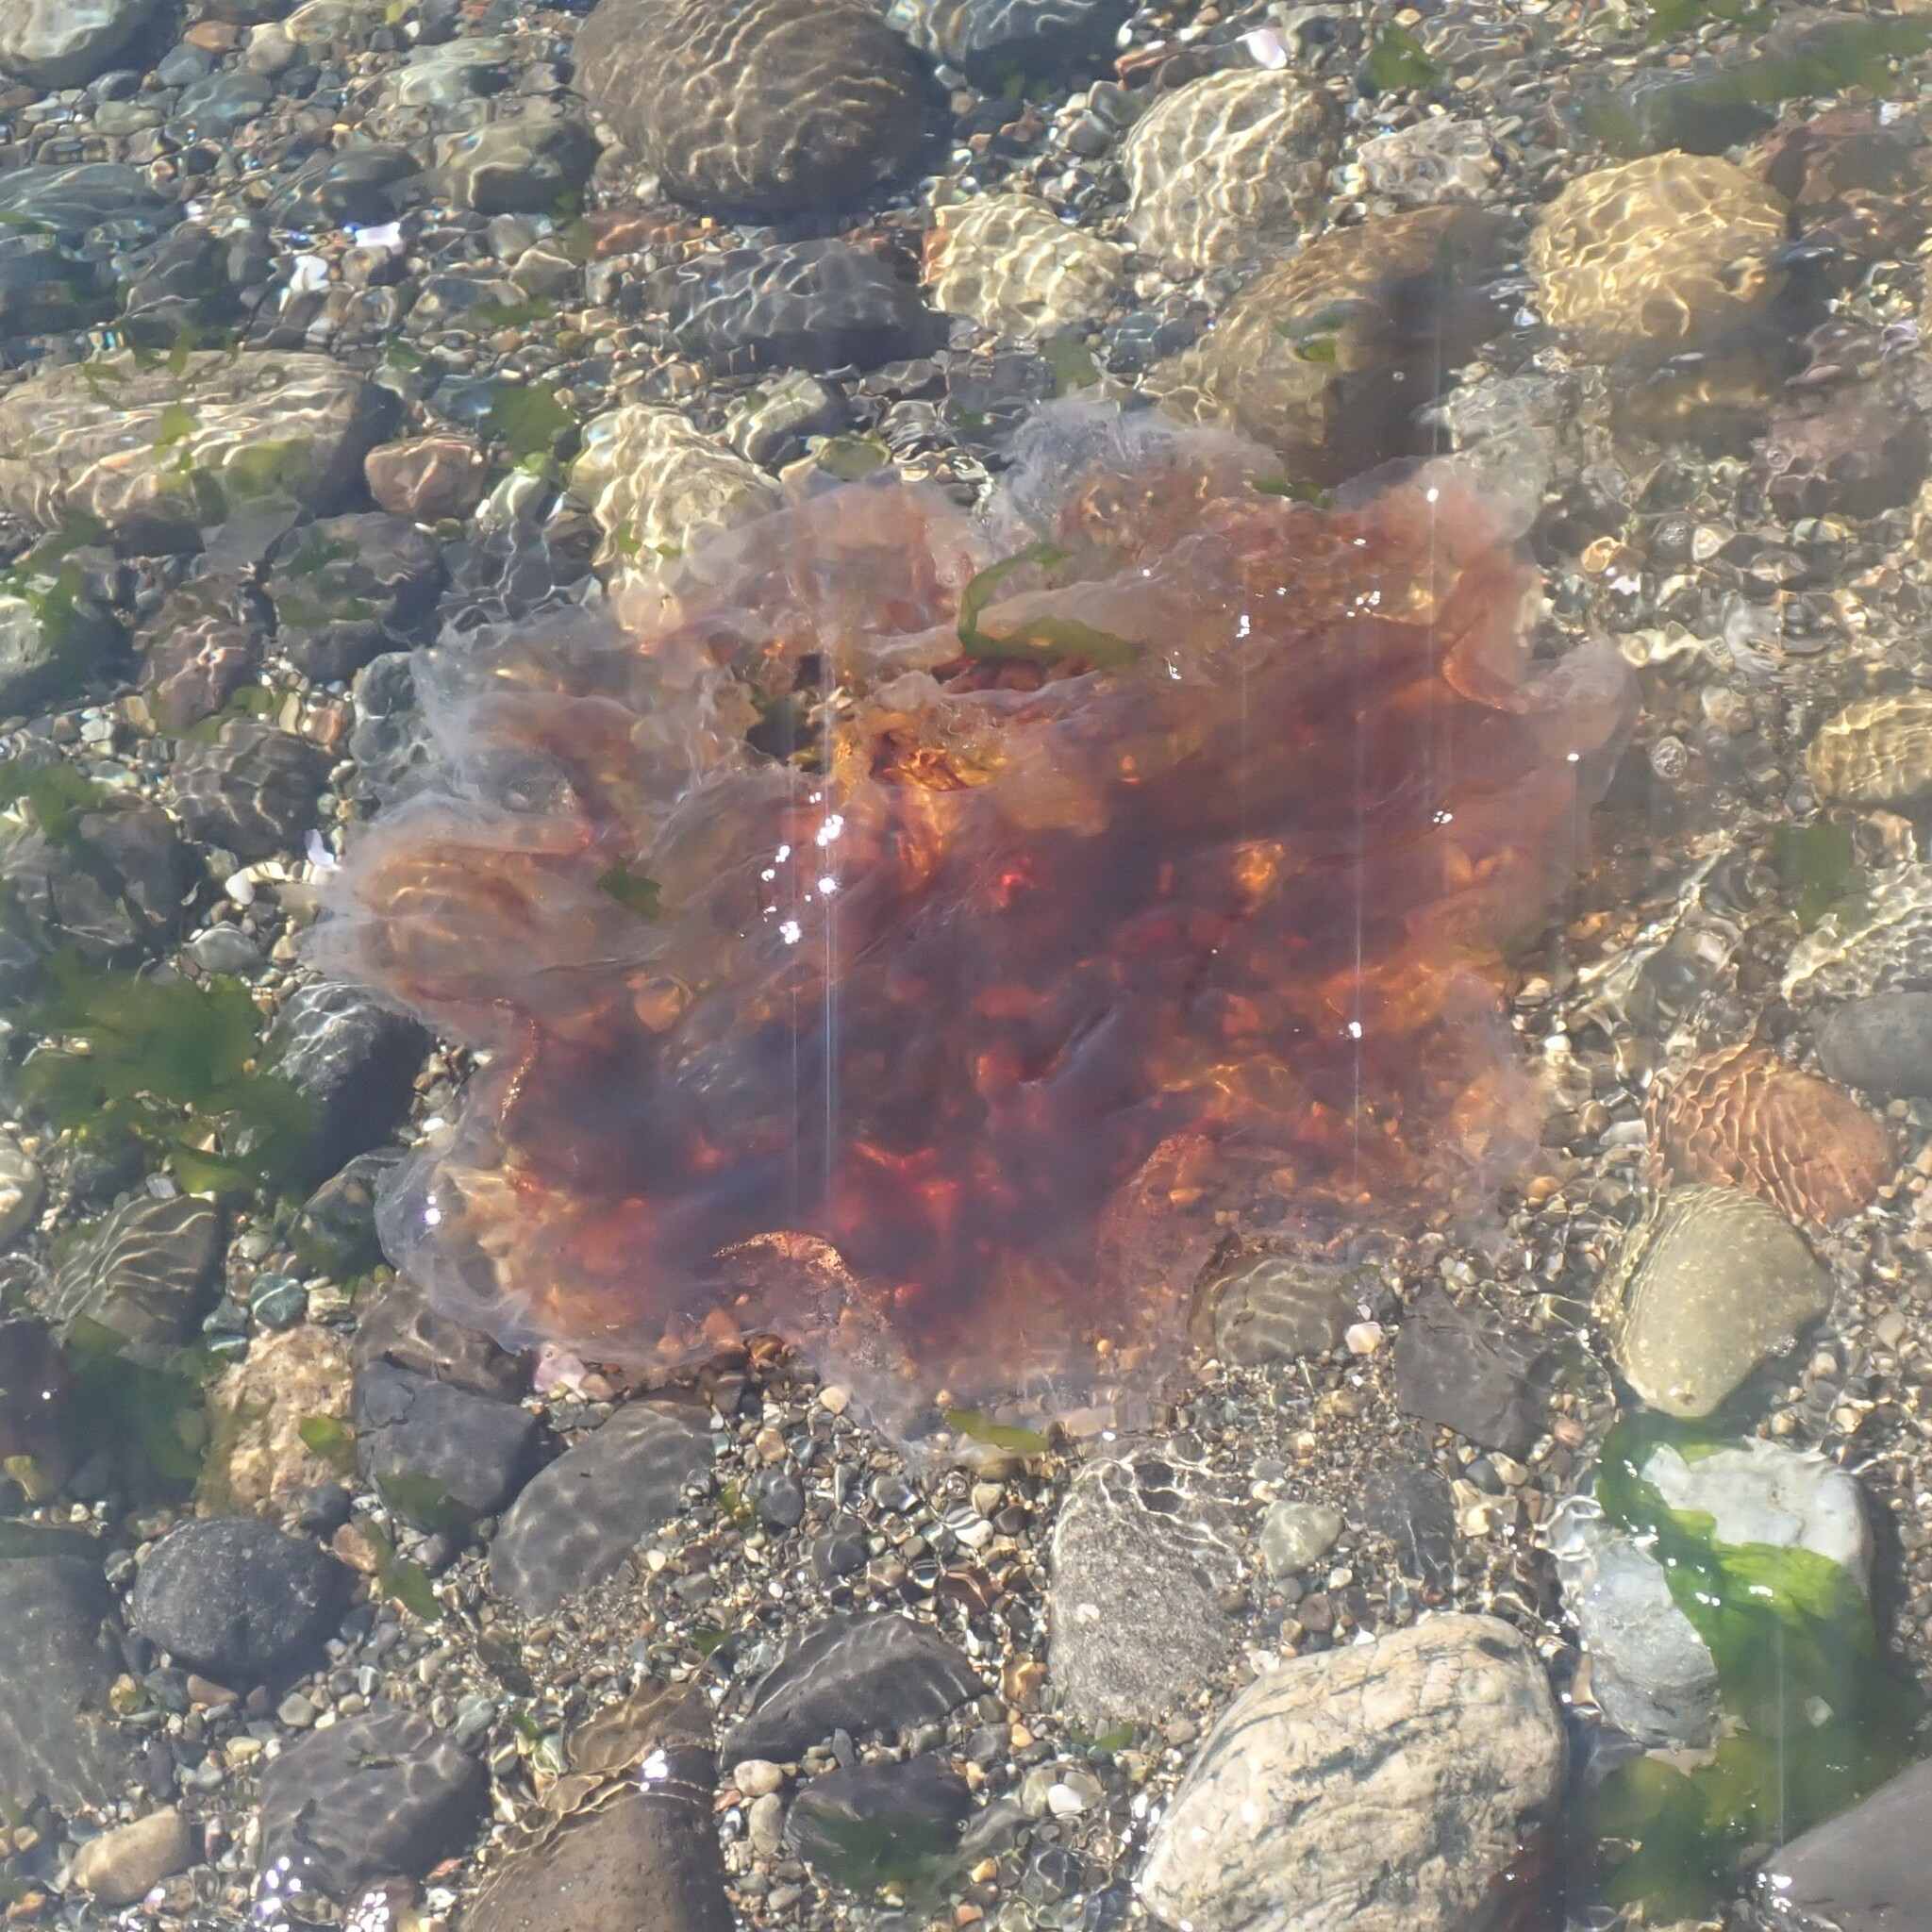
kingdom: Animalia
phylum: Cnidaria
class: Scyphozoa
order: Semaeostomeae
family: Cyaneidae
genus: Cyanea
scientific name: Cyanea ferruginea
